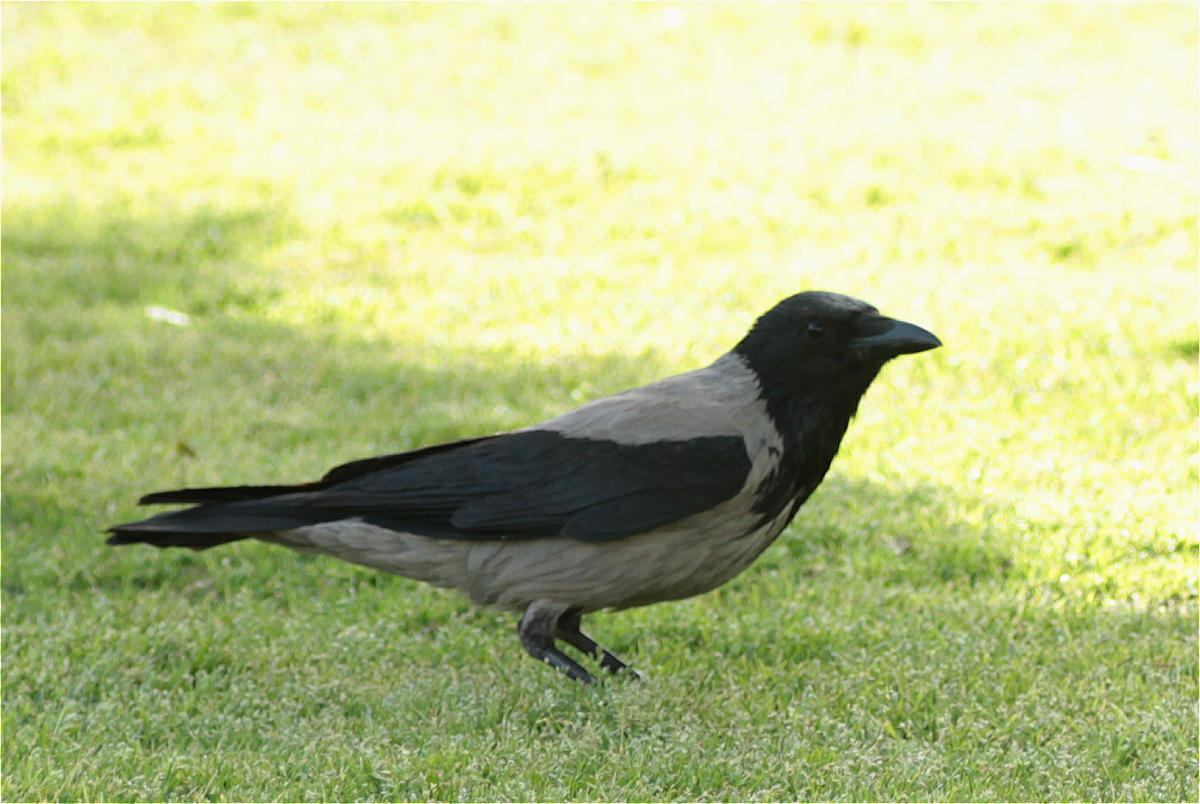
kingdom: Animalia
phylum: Chordata
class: Aves
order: Passeriformes
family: Corvidae
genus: Corvus
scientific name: Corvus cornix
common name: Hooded crow
